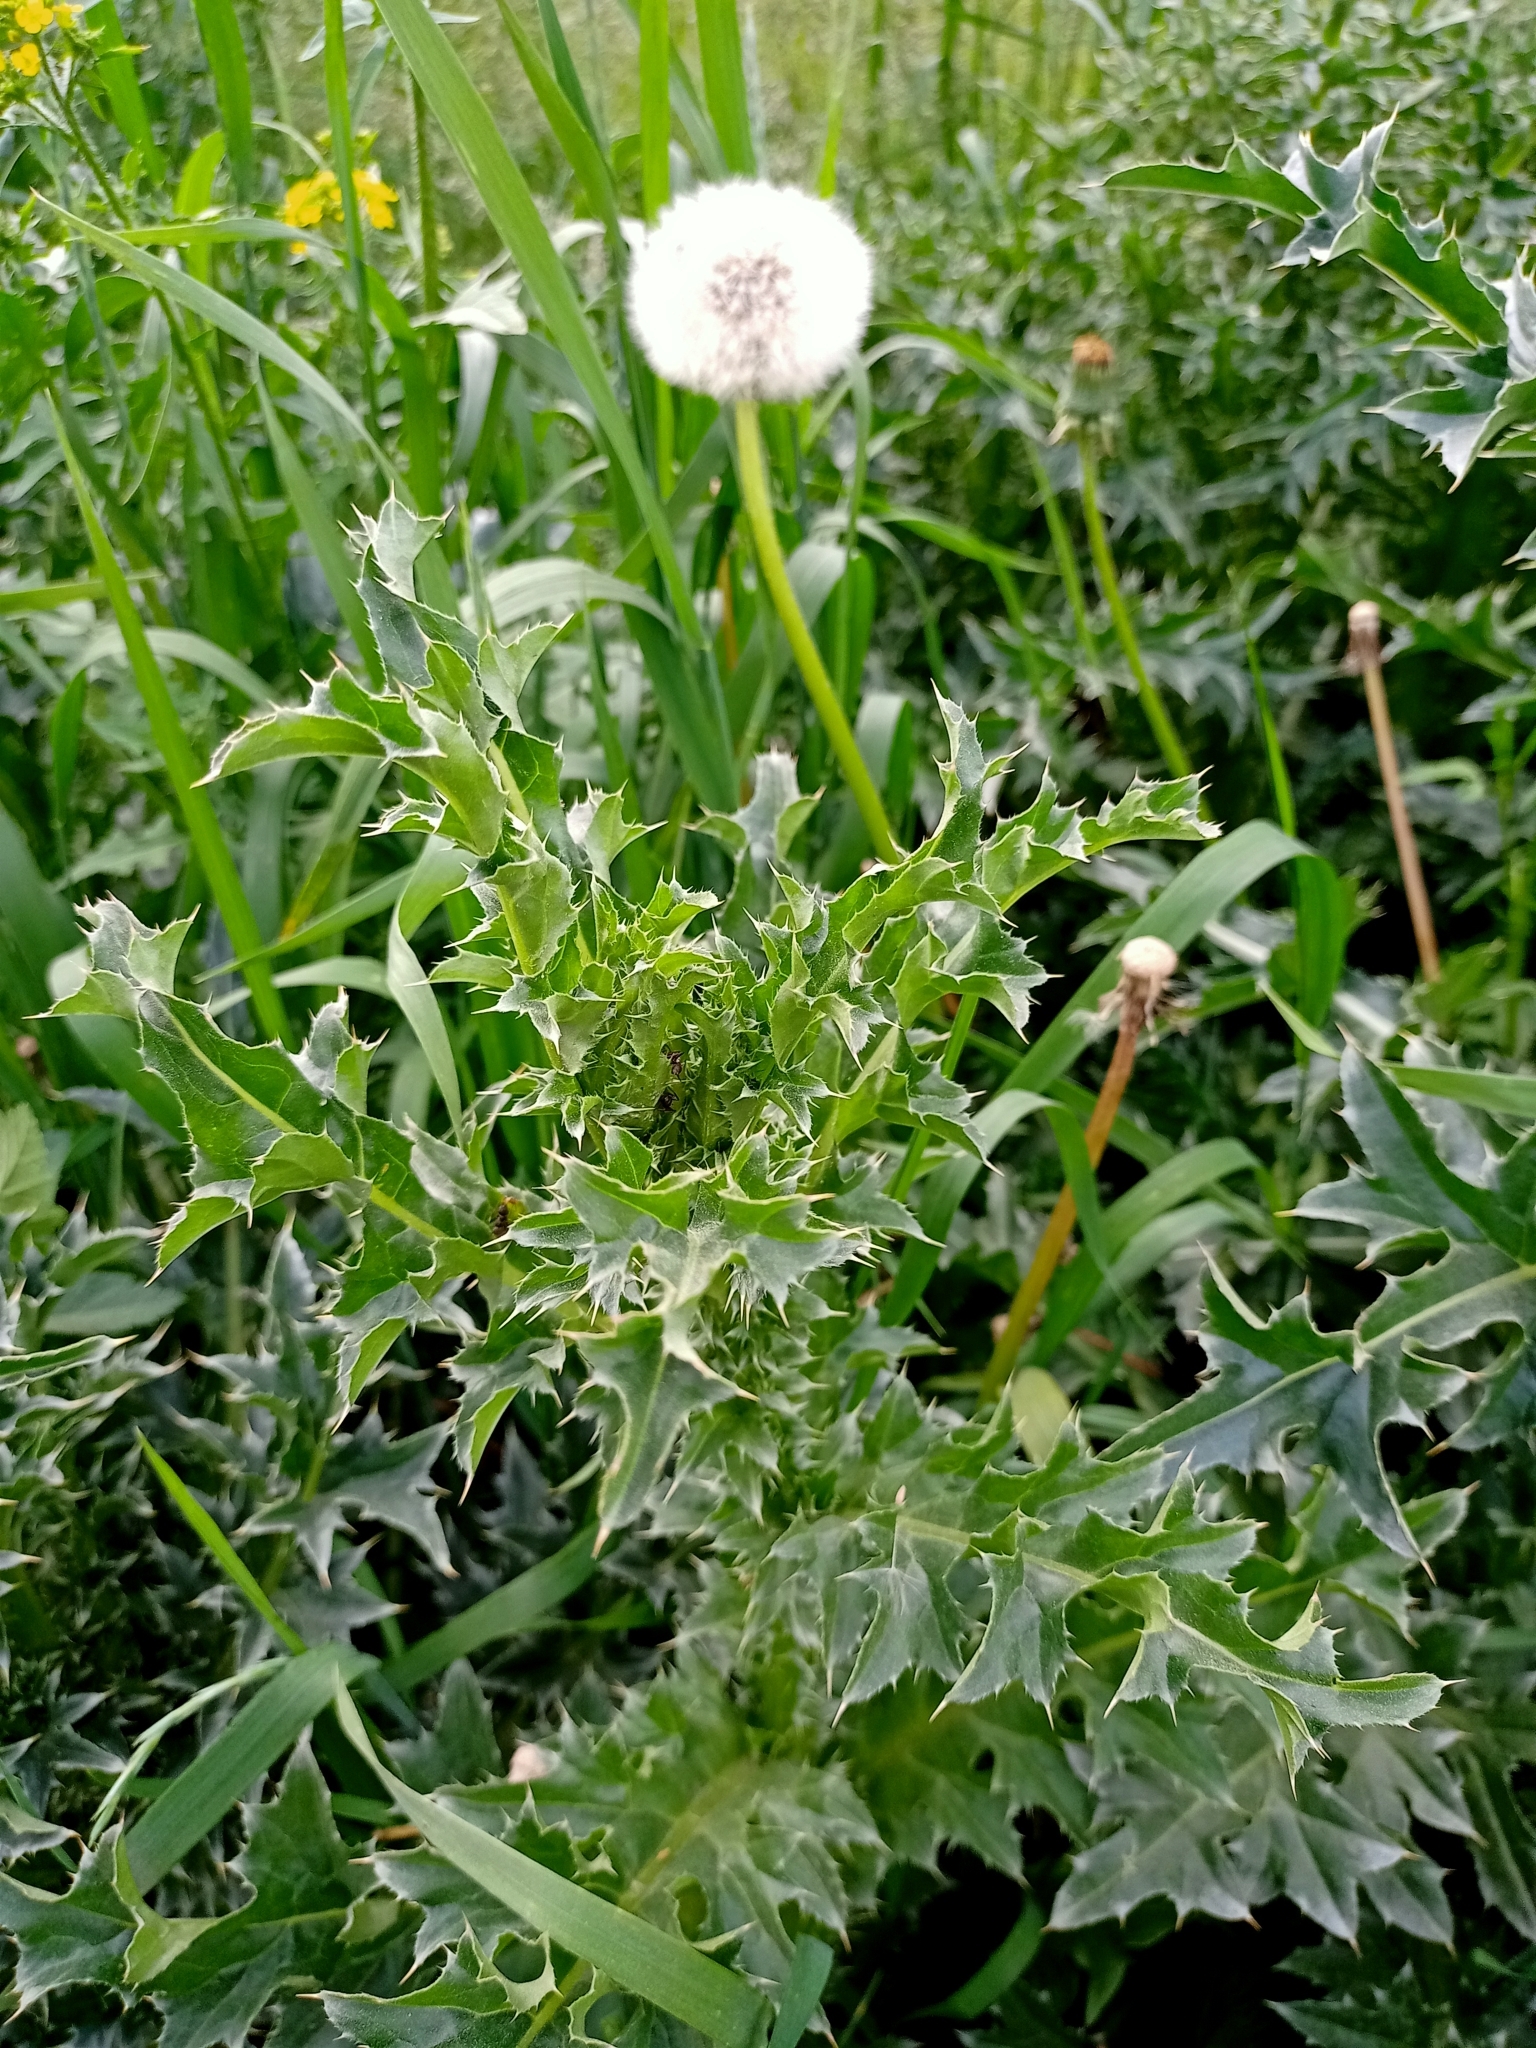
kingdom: Plantae
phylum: Tracheophyta
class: Magnoliopsida
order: Asterales
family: Asteraceae
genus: Carduus
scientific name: Carduus nutans
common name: Musk thistle
